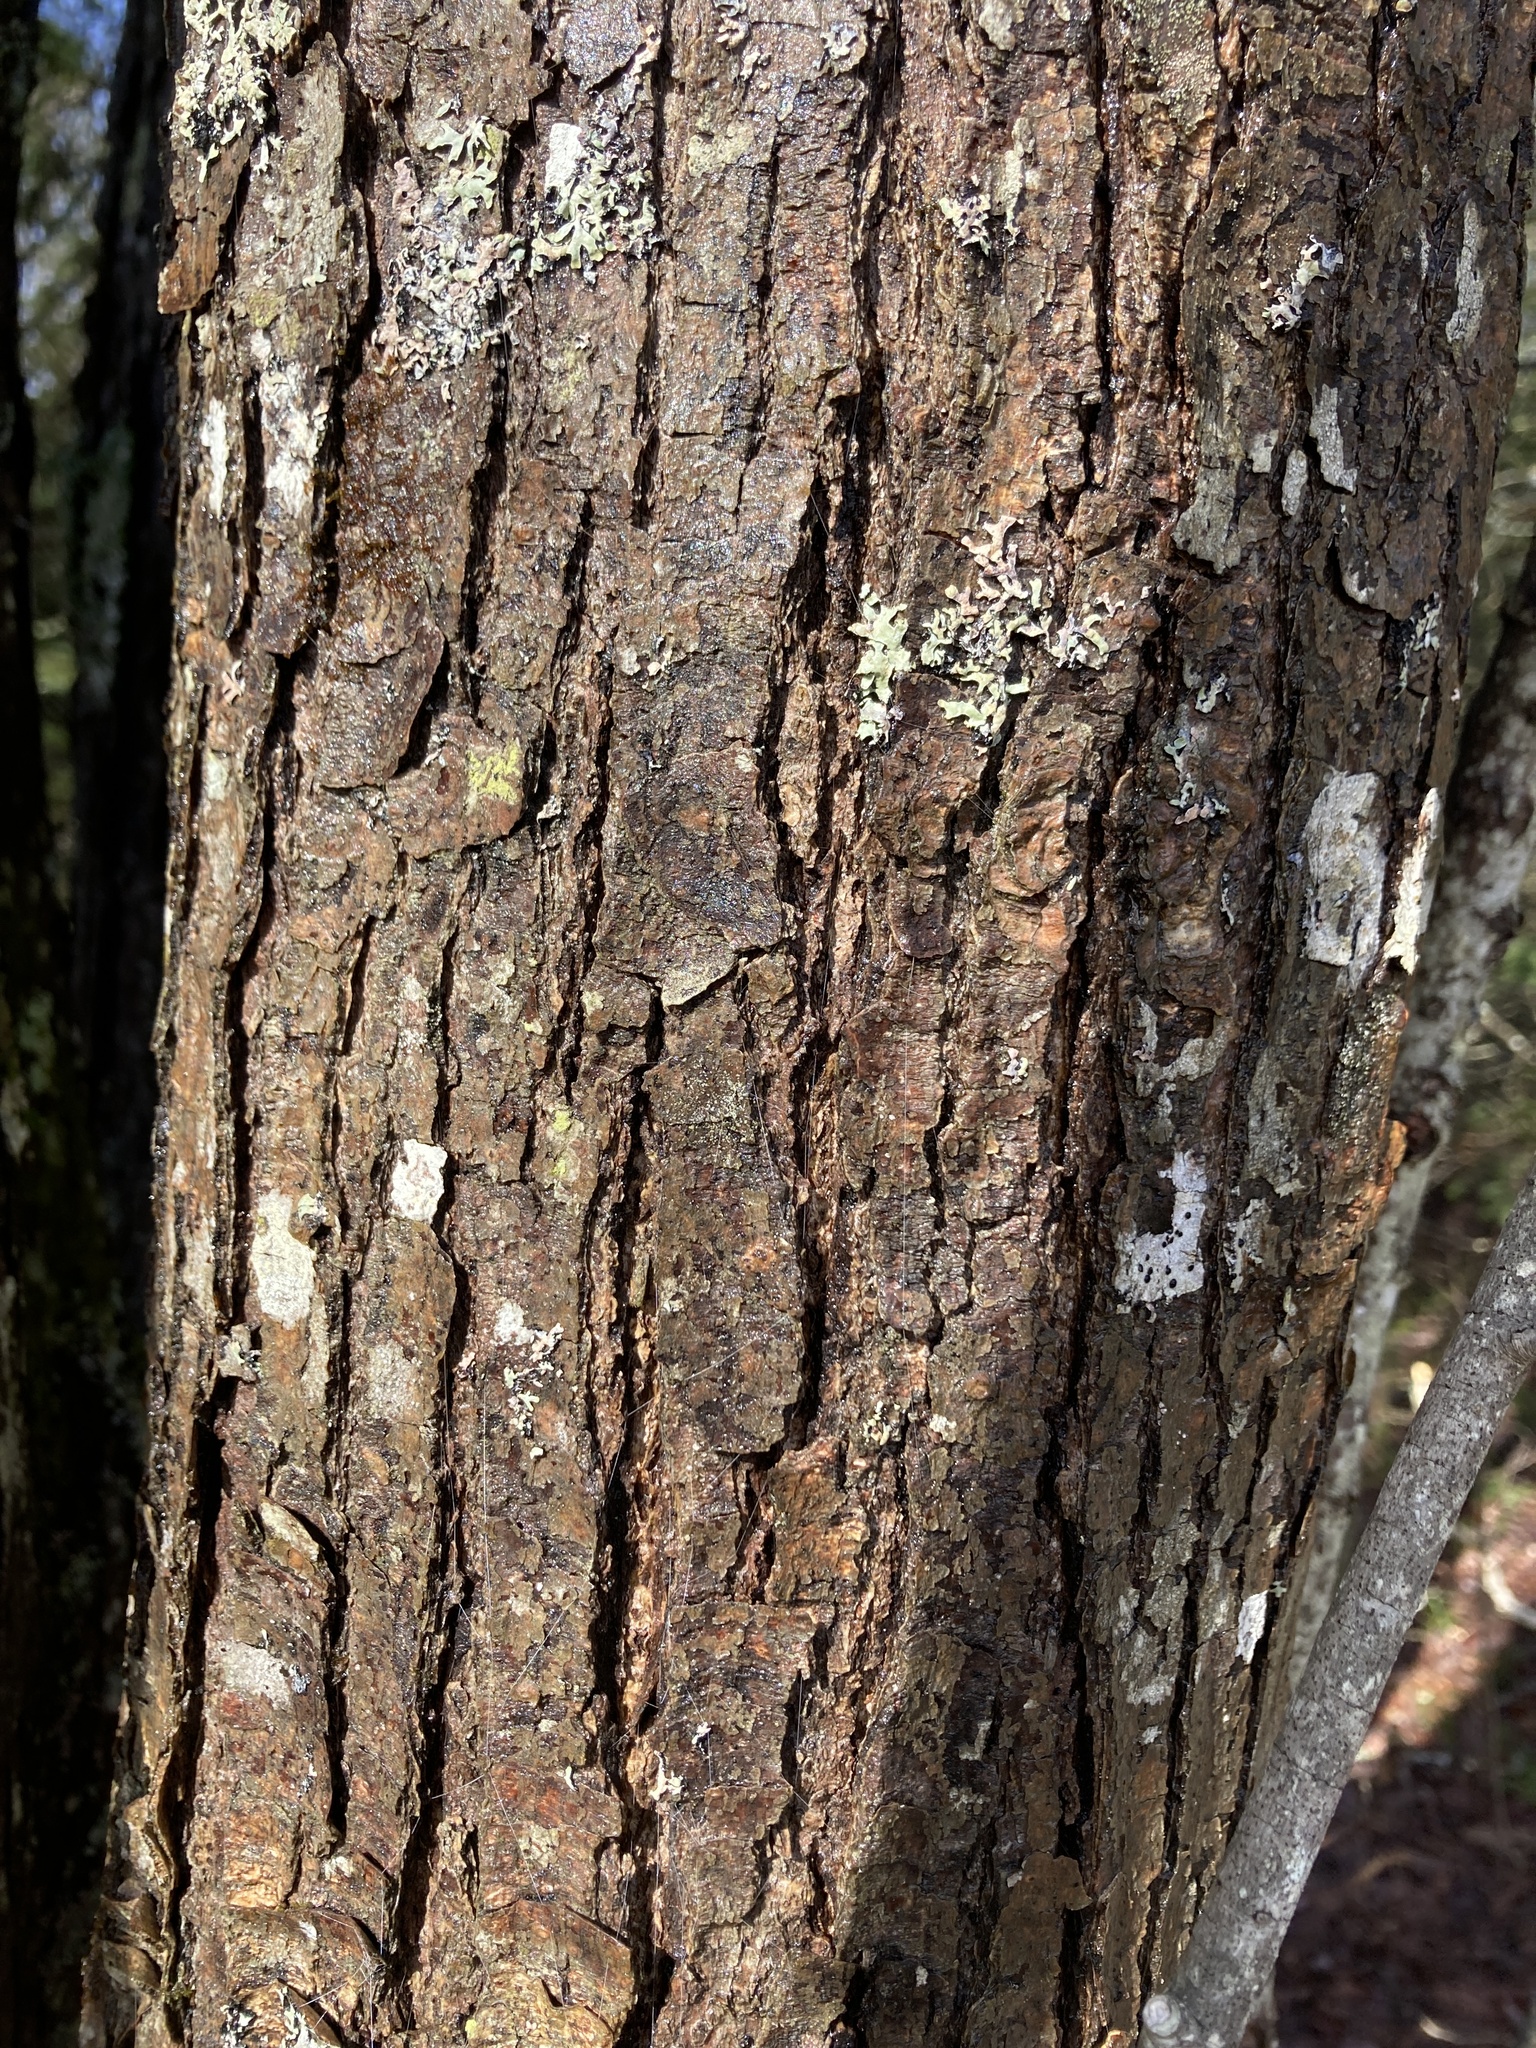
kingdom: Plantae
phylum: Tracheophyta
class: Magnoliopsida
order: Sapindales
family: Sapindaceae
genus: Acer
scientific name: Acer rubrum
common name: Red maple
